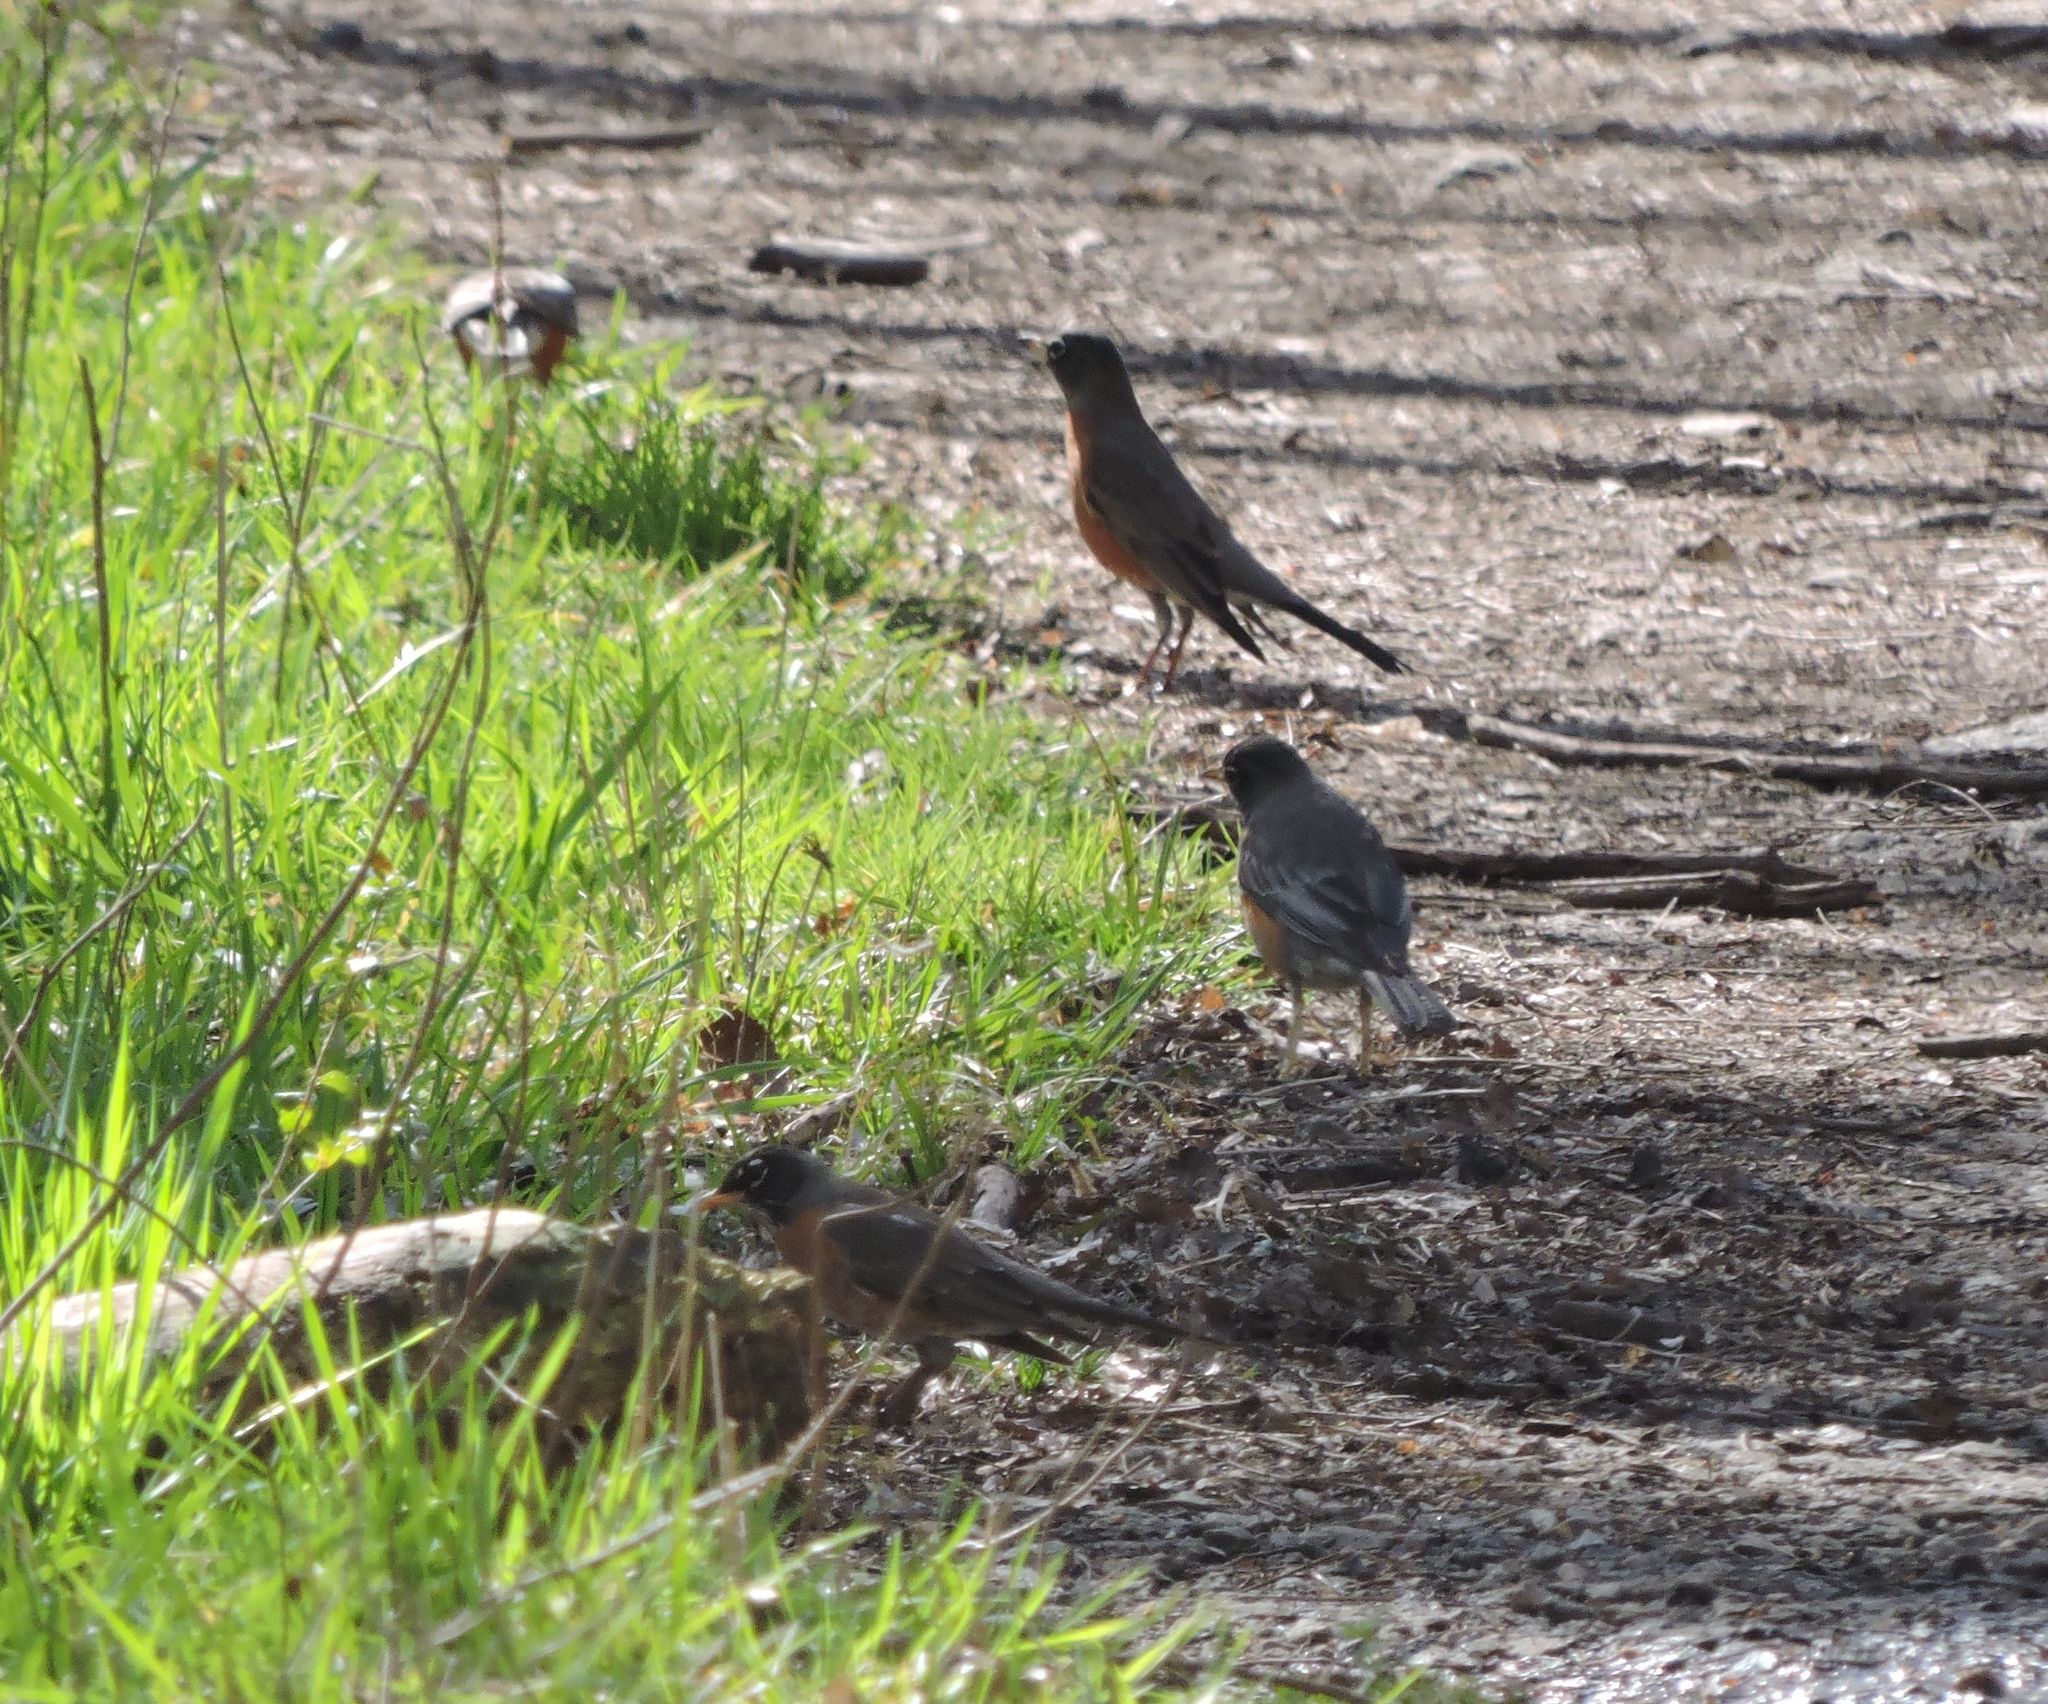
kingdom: Animalia
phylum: Chordata
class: Aves
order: Passeriformes
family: Turdidae
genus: Turdus
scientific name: Turdus migratorius
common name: American robin
